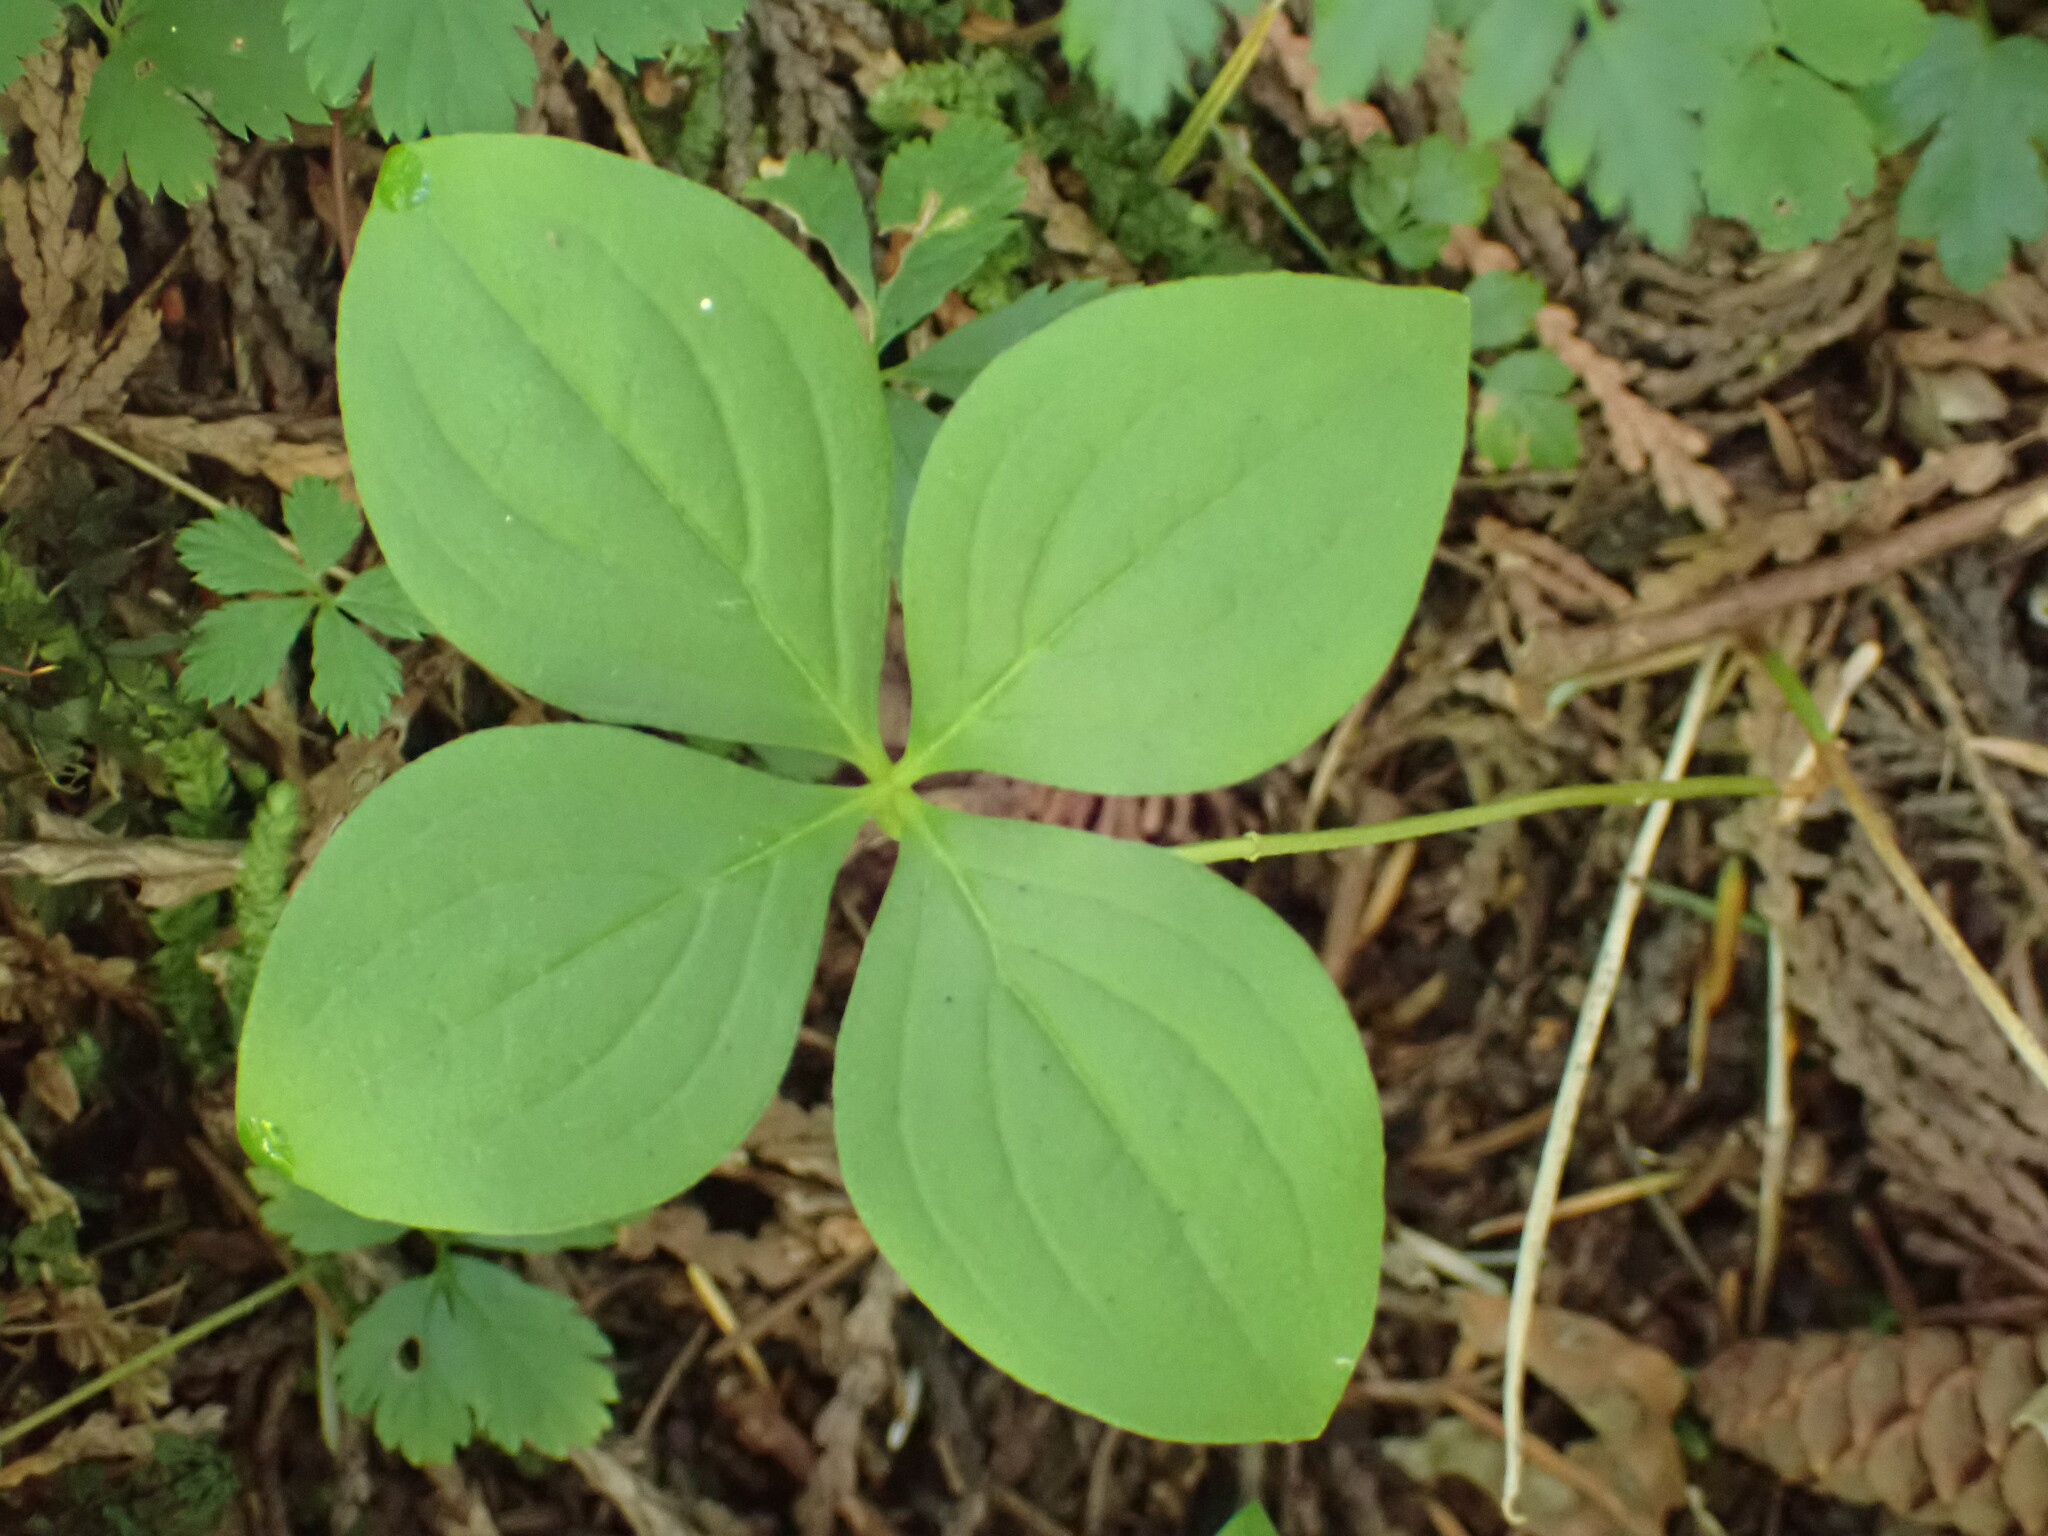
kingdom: Plantae
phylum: Tracheophyta
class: Magnoliopsida
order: Cornales
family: Cornaceae
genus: Cornus
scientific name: Cornus unalaschkensis
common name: Alaska bunchberry
